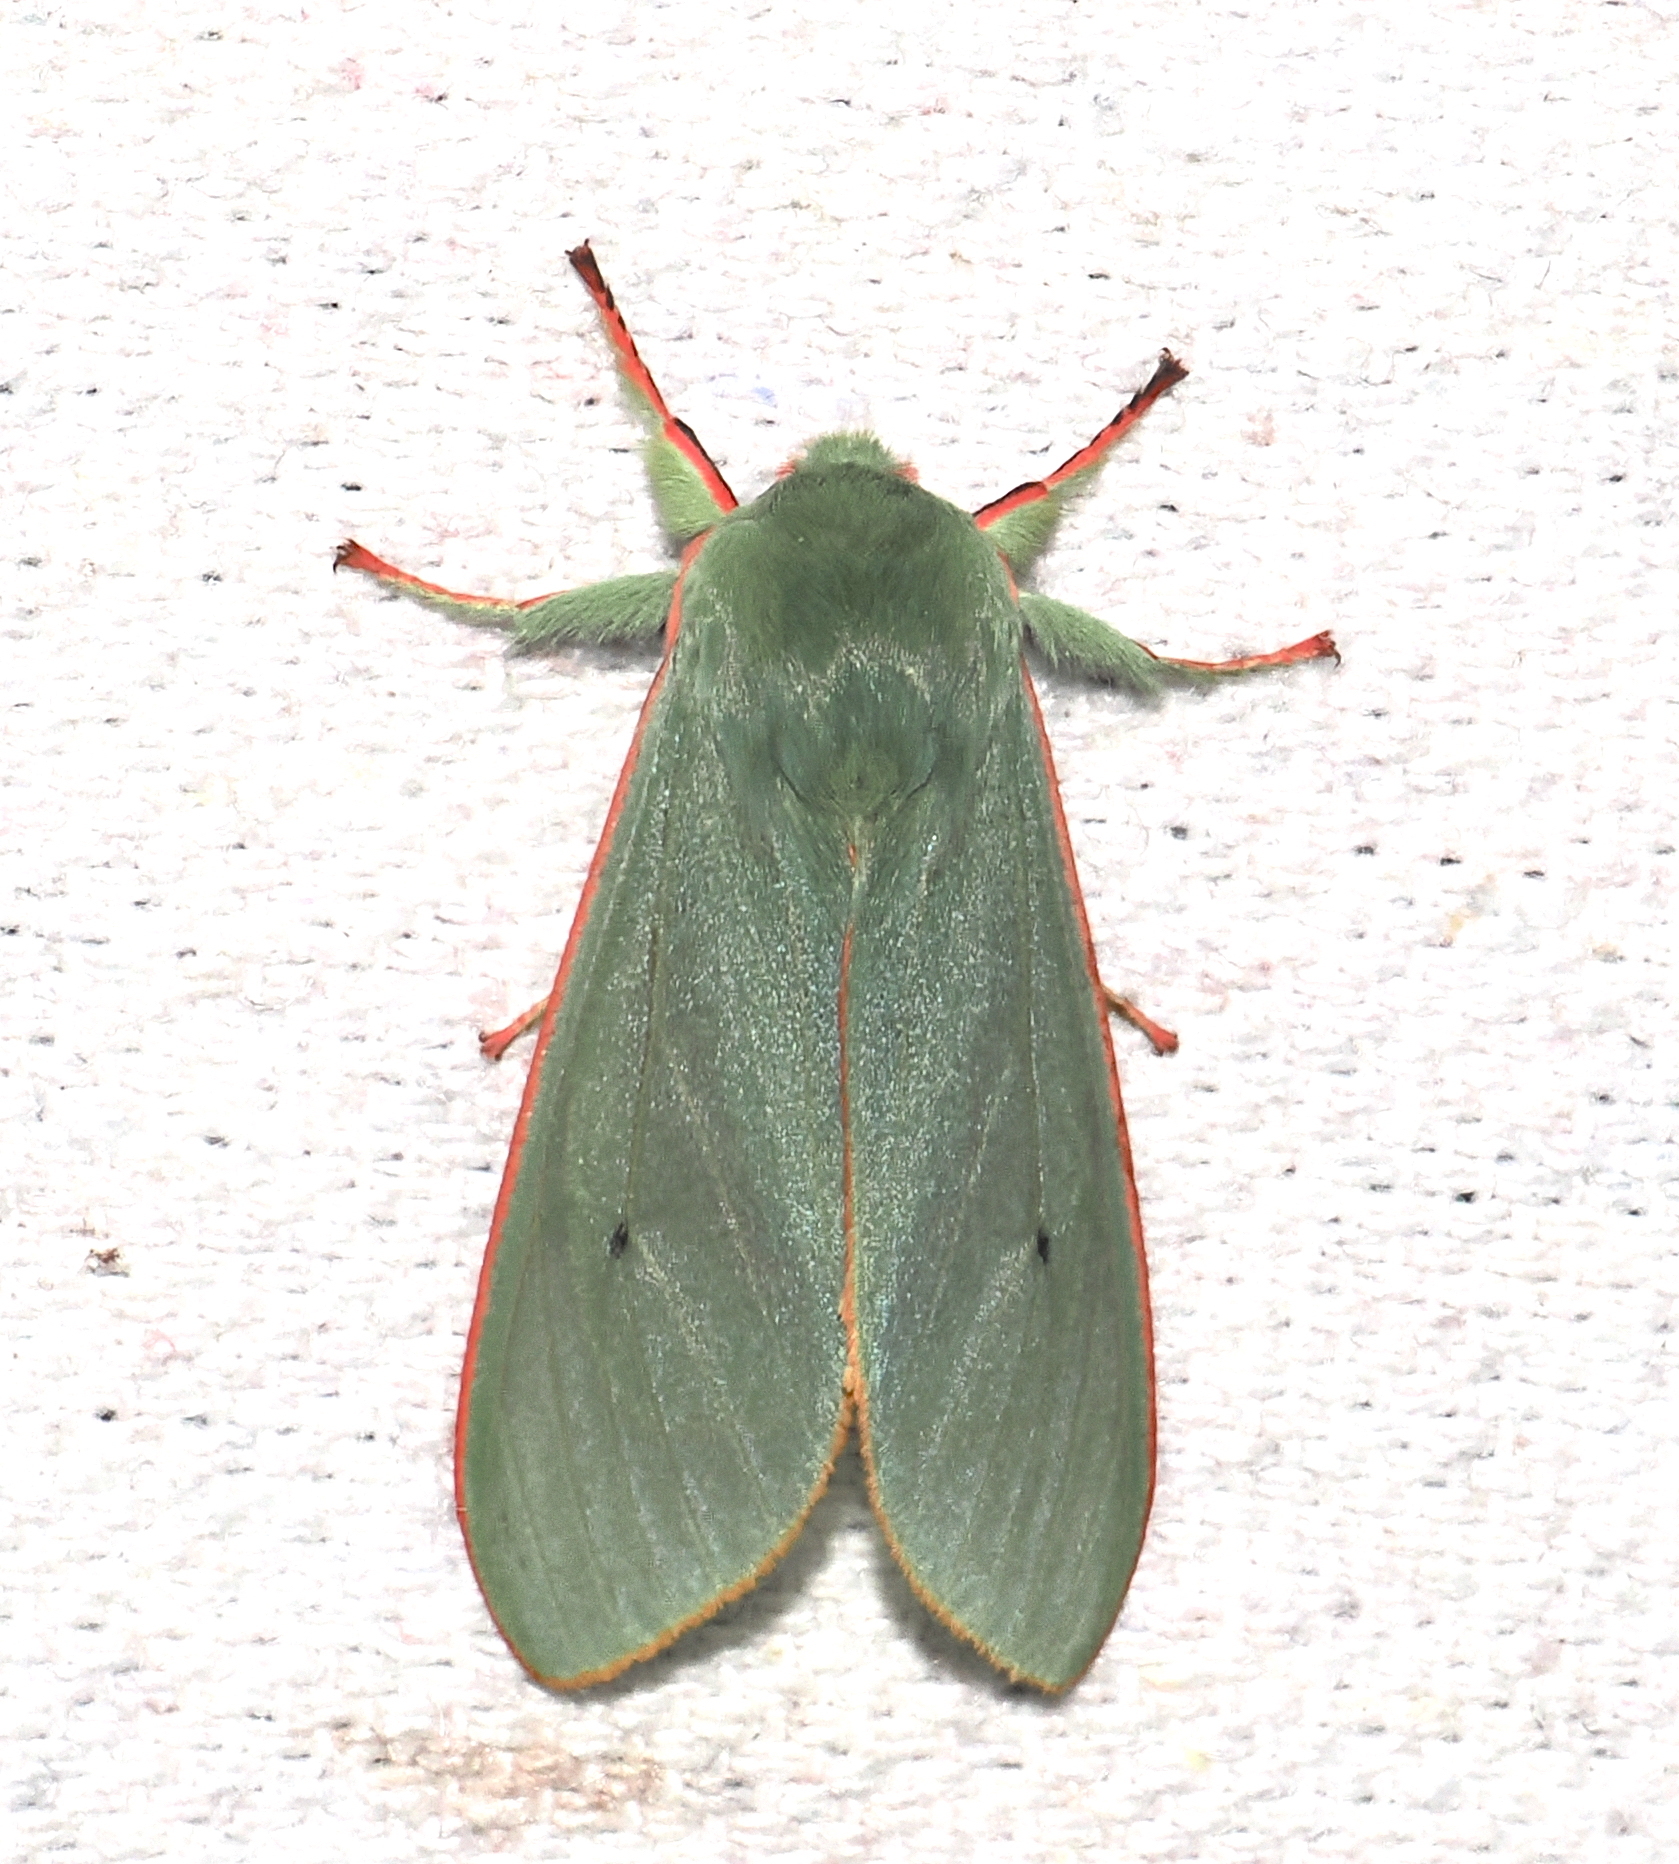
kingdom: Animalia
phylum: Arthropoda
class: Insecta
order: Lepidoptera
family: Erebidae
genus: Hypomolis
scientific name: Hypomolis roseicincta
